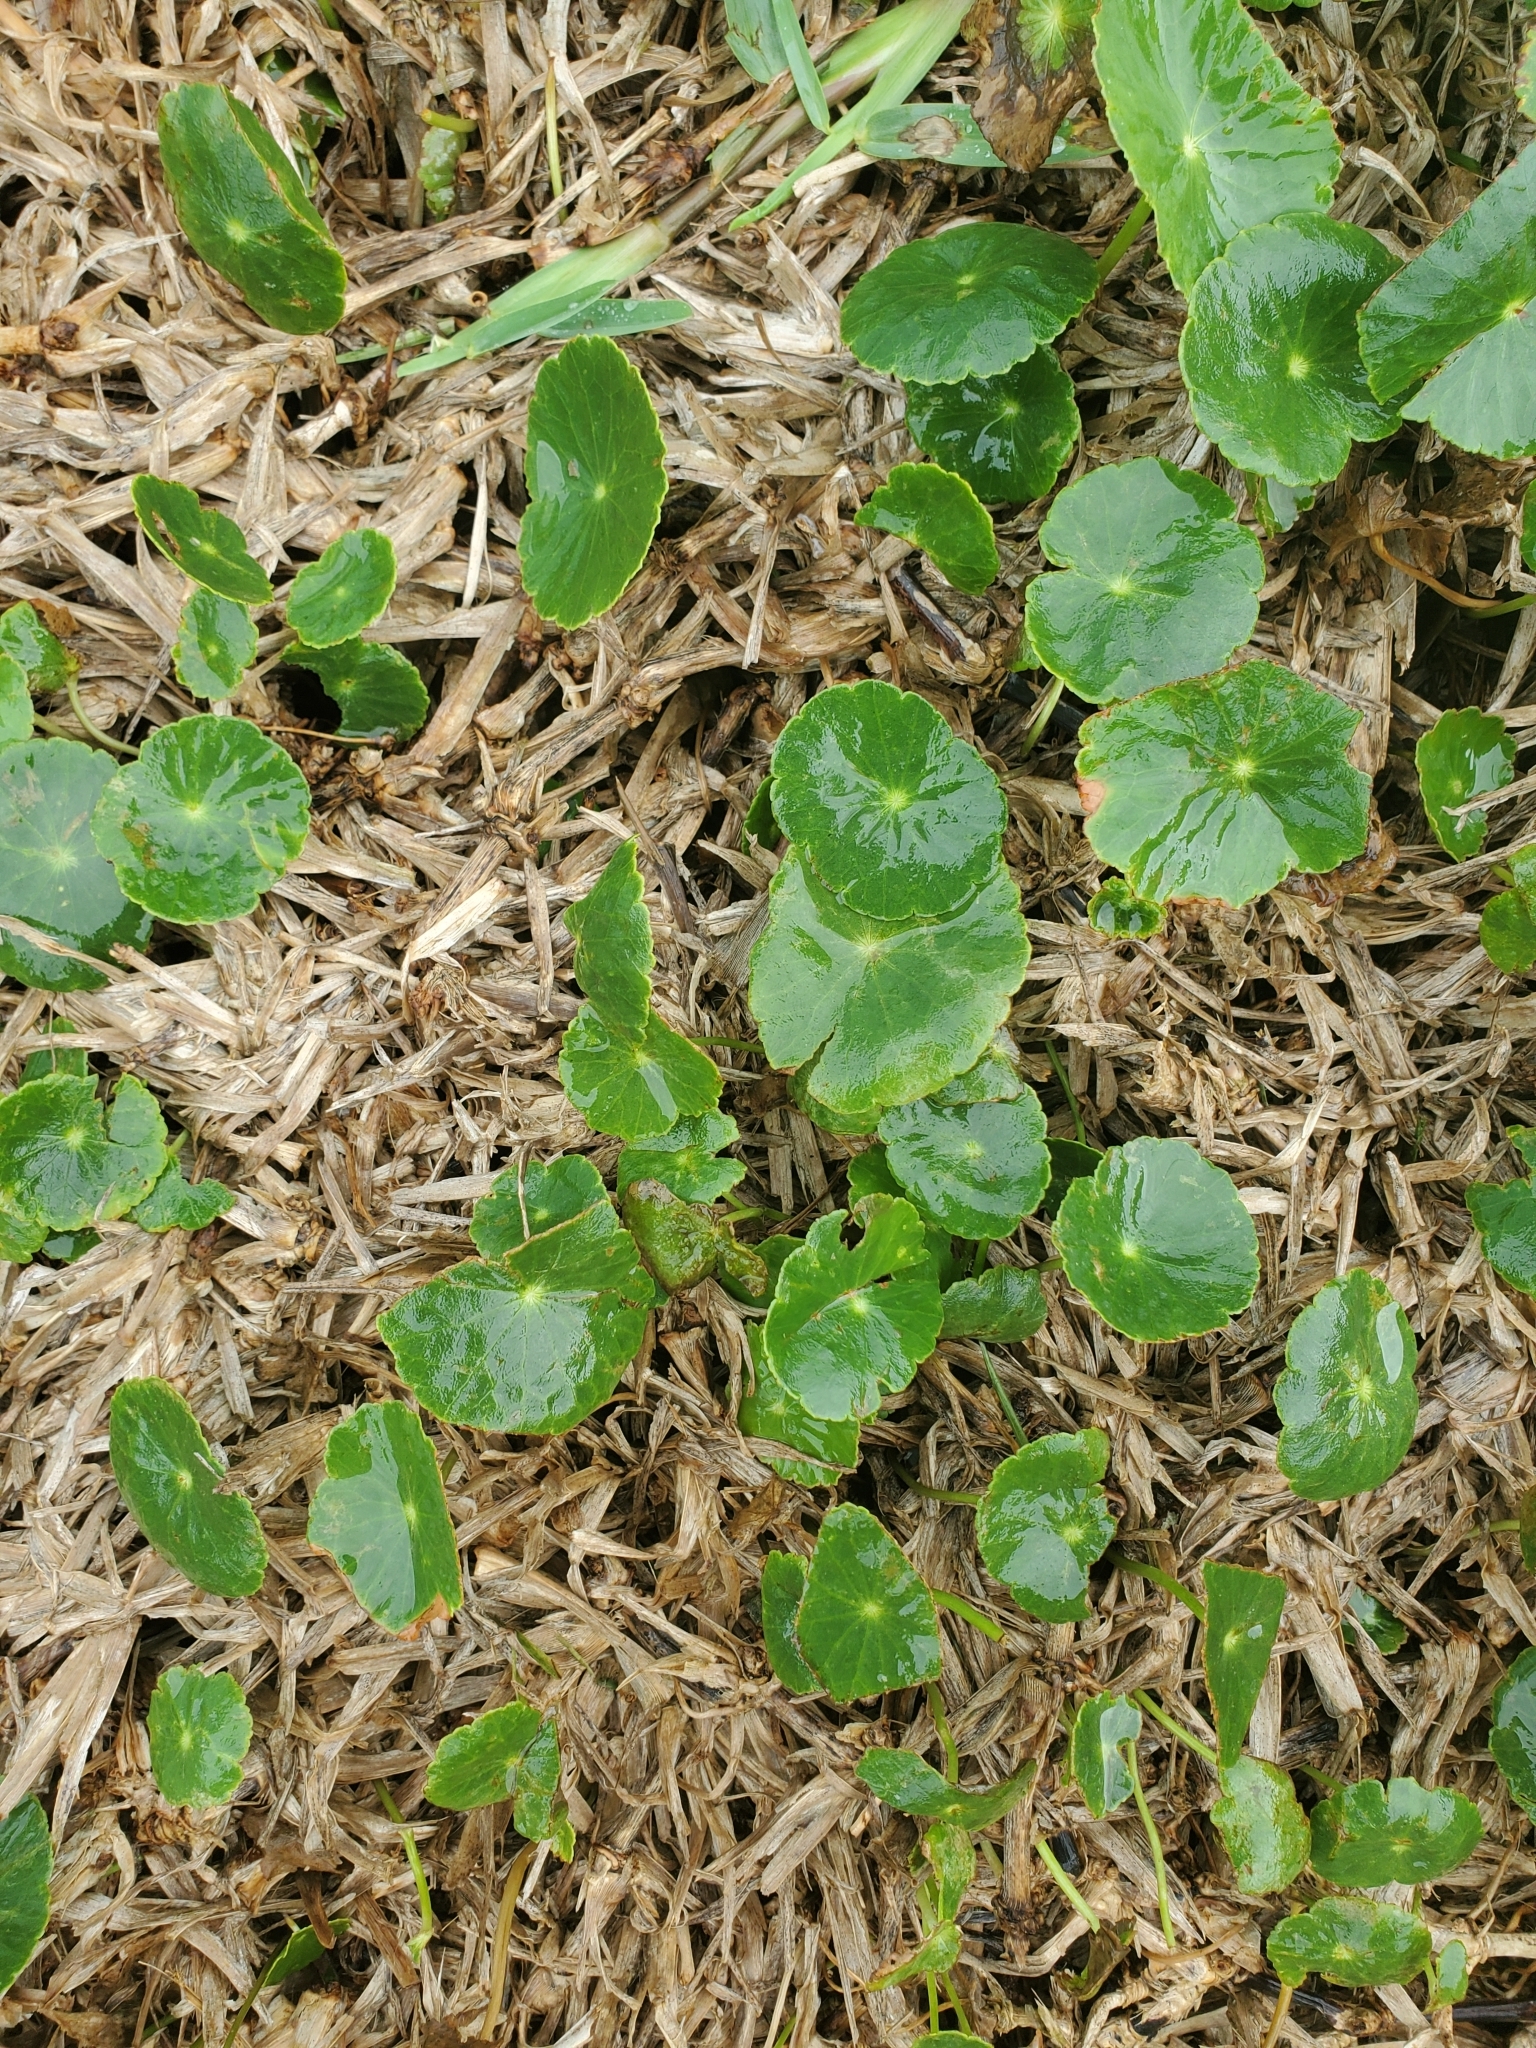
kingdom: Plantae
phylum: Tracheophyta
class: Magnoliopsida
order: Apiales
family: Araliaceae
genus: Hydrocotyle
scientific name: Hydrocotyle bonariensis
